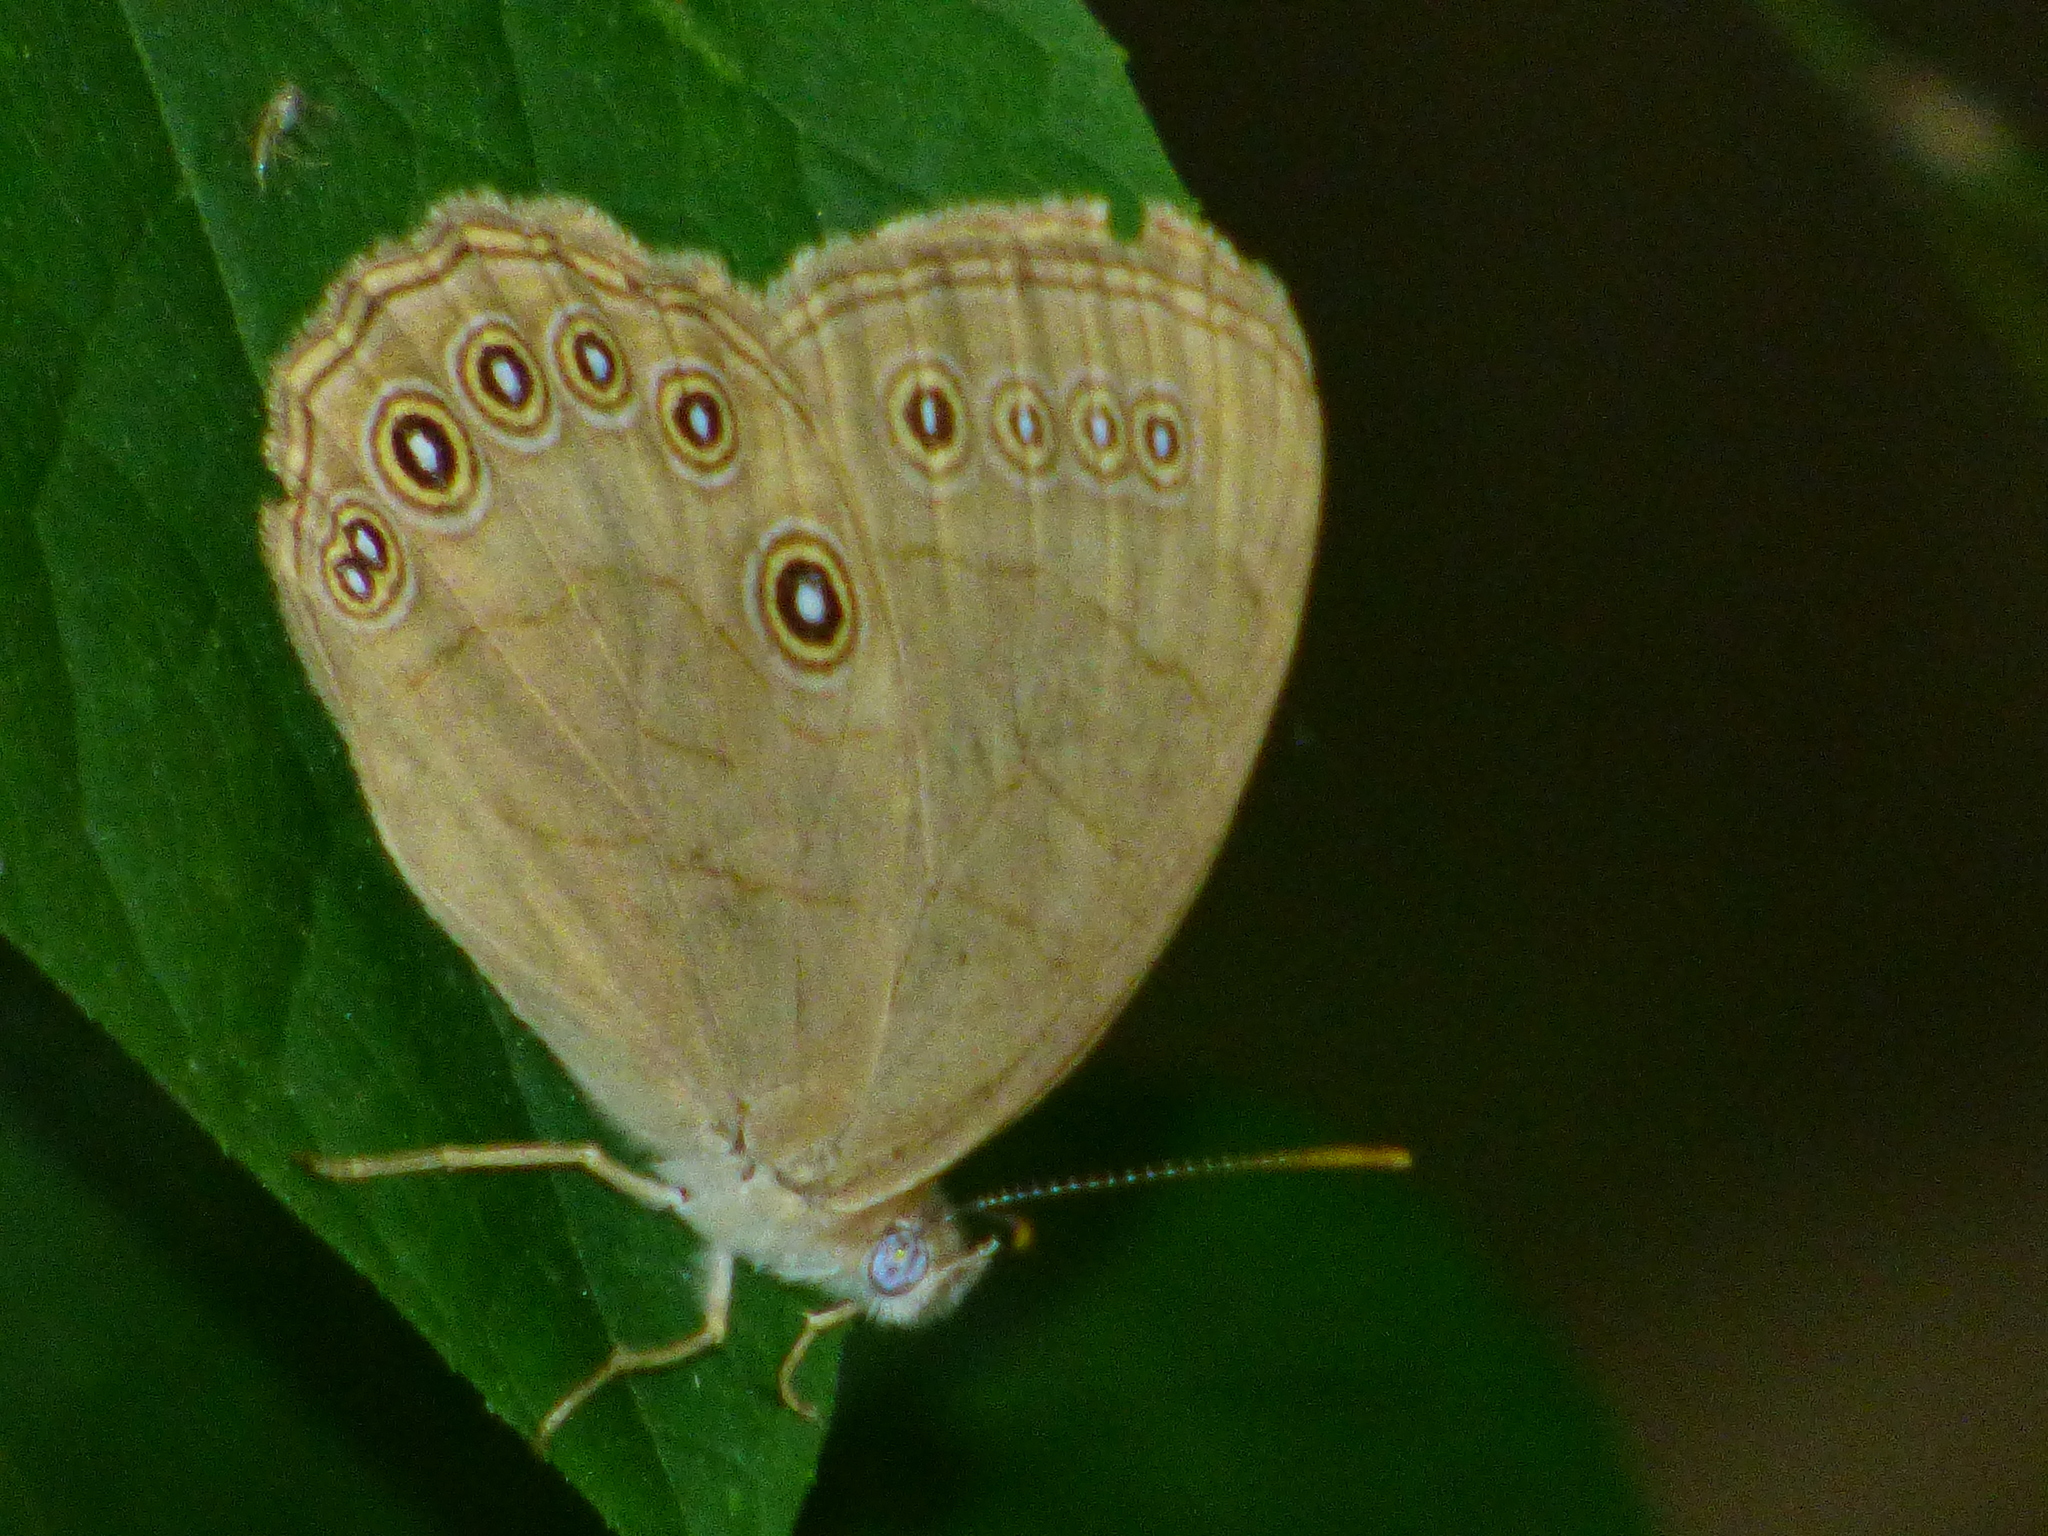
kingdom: Animalia
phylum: Arthropoda
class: Insecta
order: Lepidoptera
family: Nymphalidae
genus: Lethe
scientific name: Lethe eurydice
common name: Eyed brown
